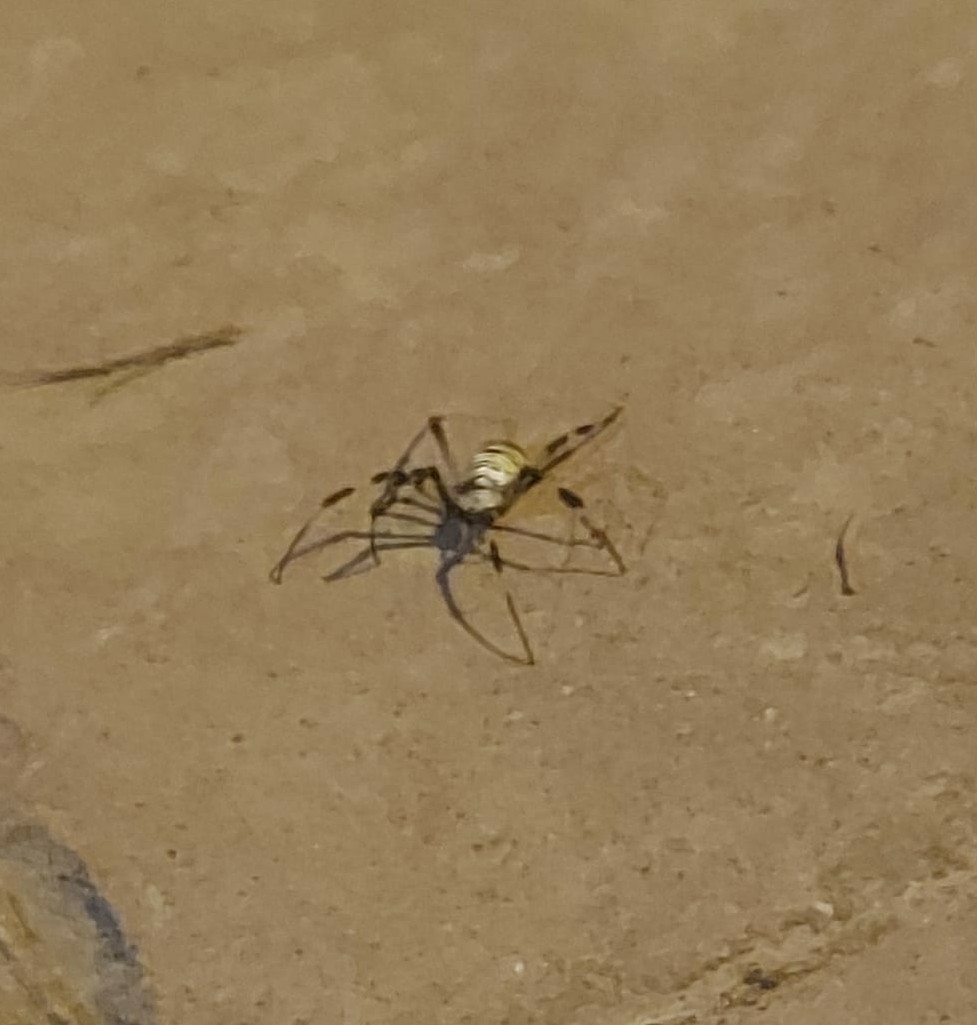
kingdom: Animalia
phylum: Arthropoda
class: Arachnida
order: Araneae
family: Araneidae
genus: Argiope
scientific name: Argiope bruennichi
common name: Wasp spider
